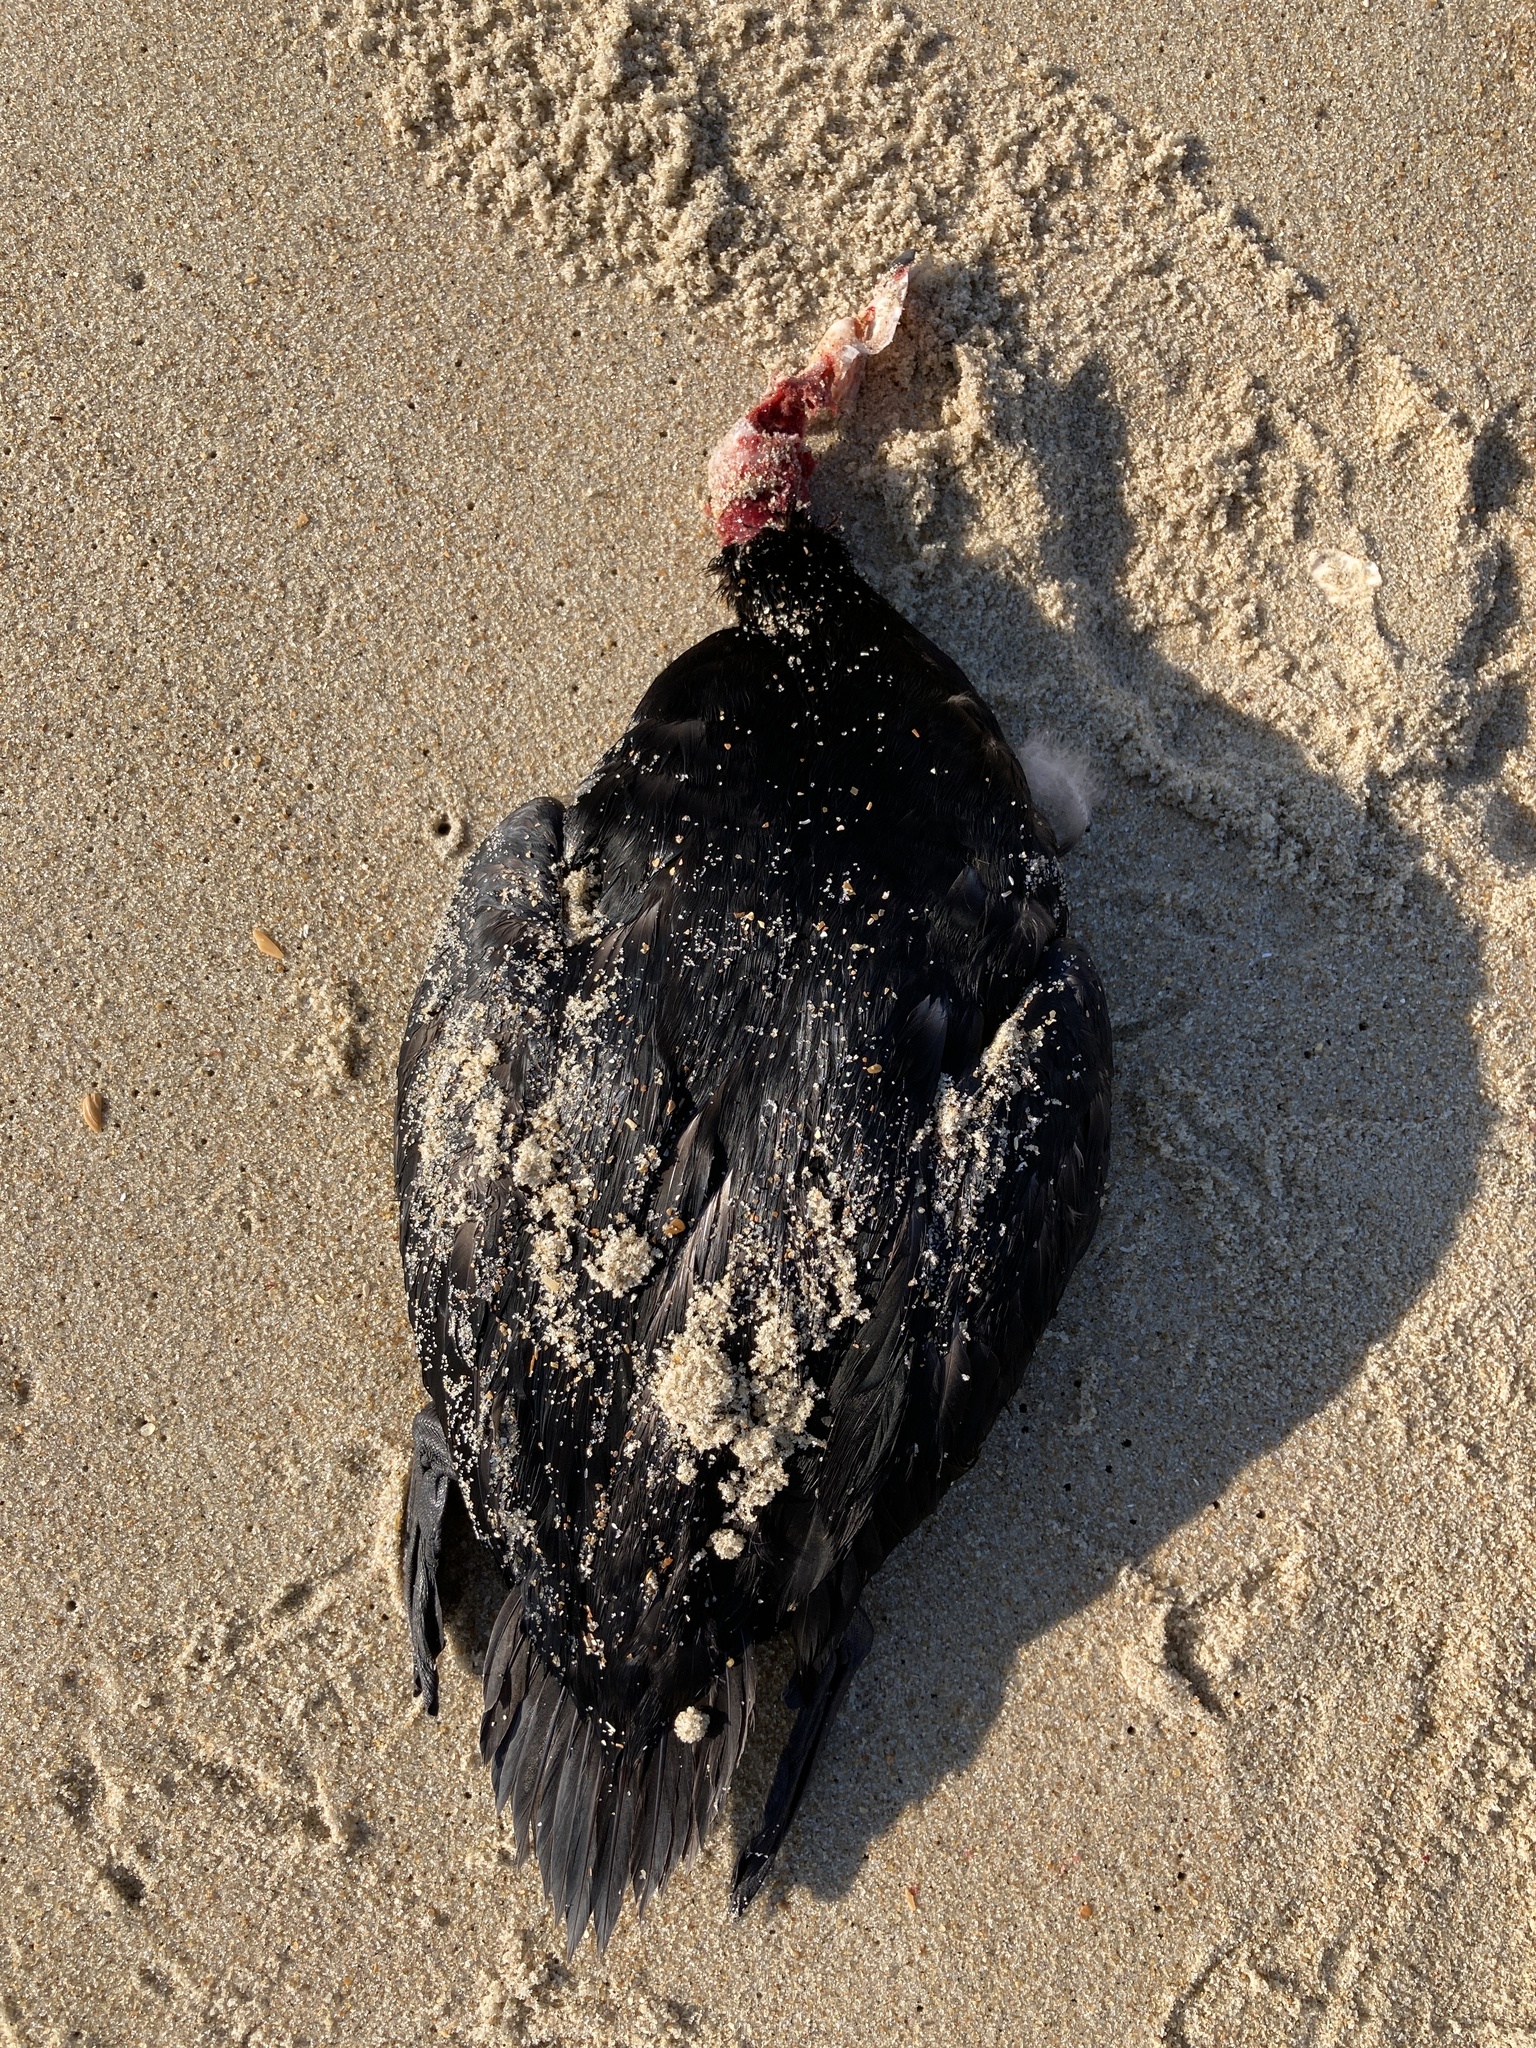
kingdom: Animalia
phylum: Chordata
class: Aves
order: Anseriformes
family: Anatidae
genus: Melanitta
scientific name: Melanitta deglandi
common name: White-winged scoter
